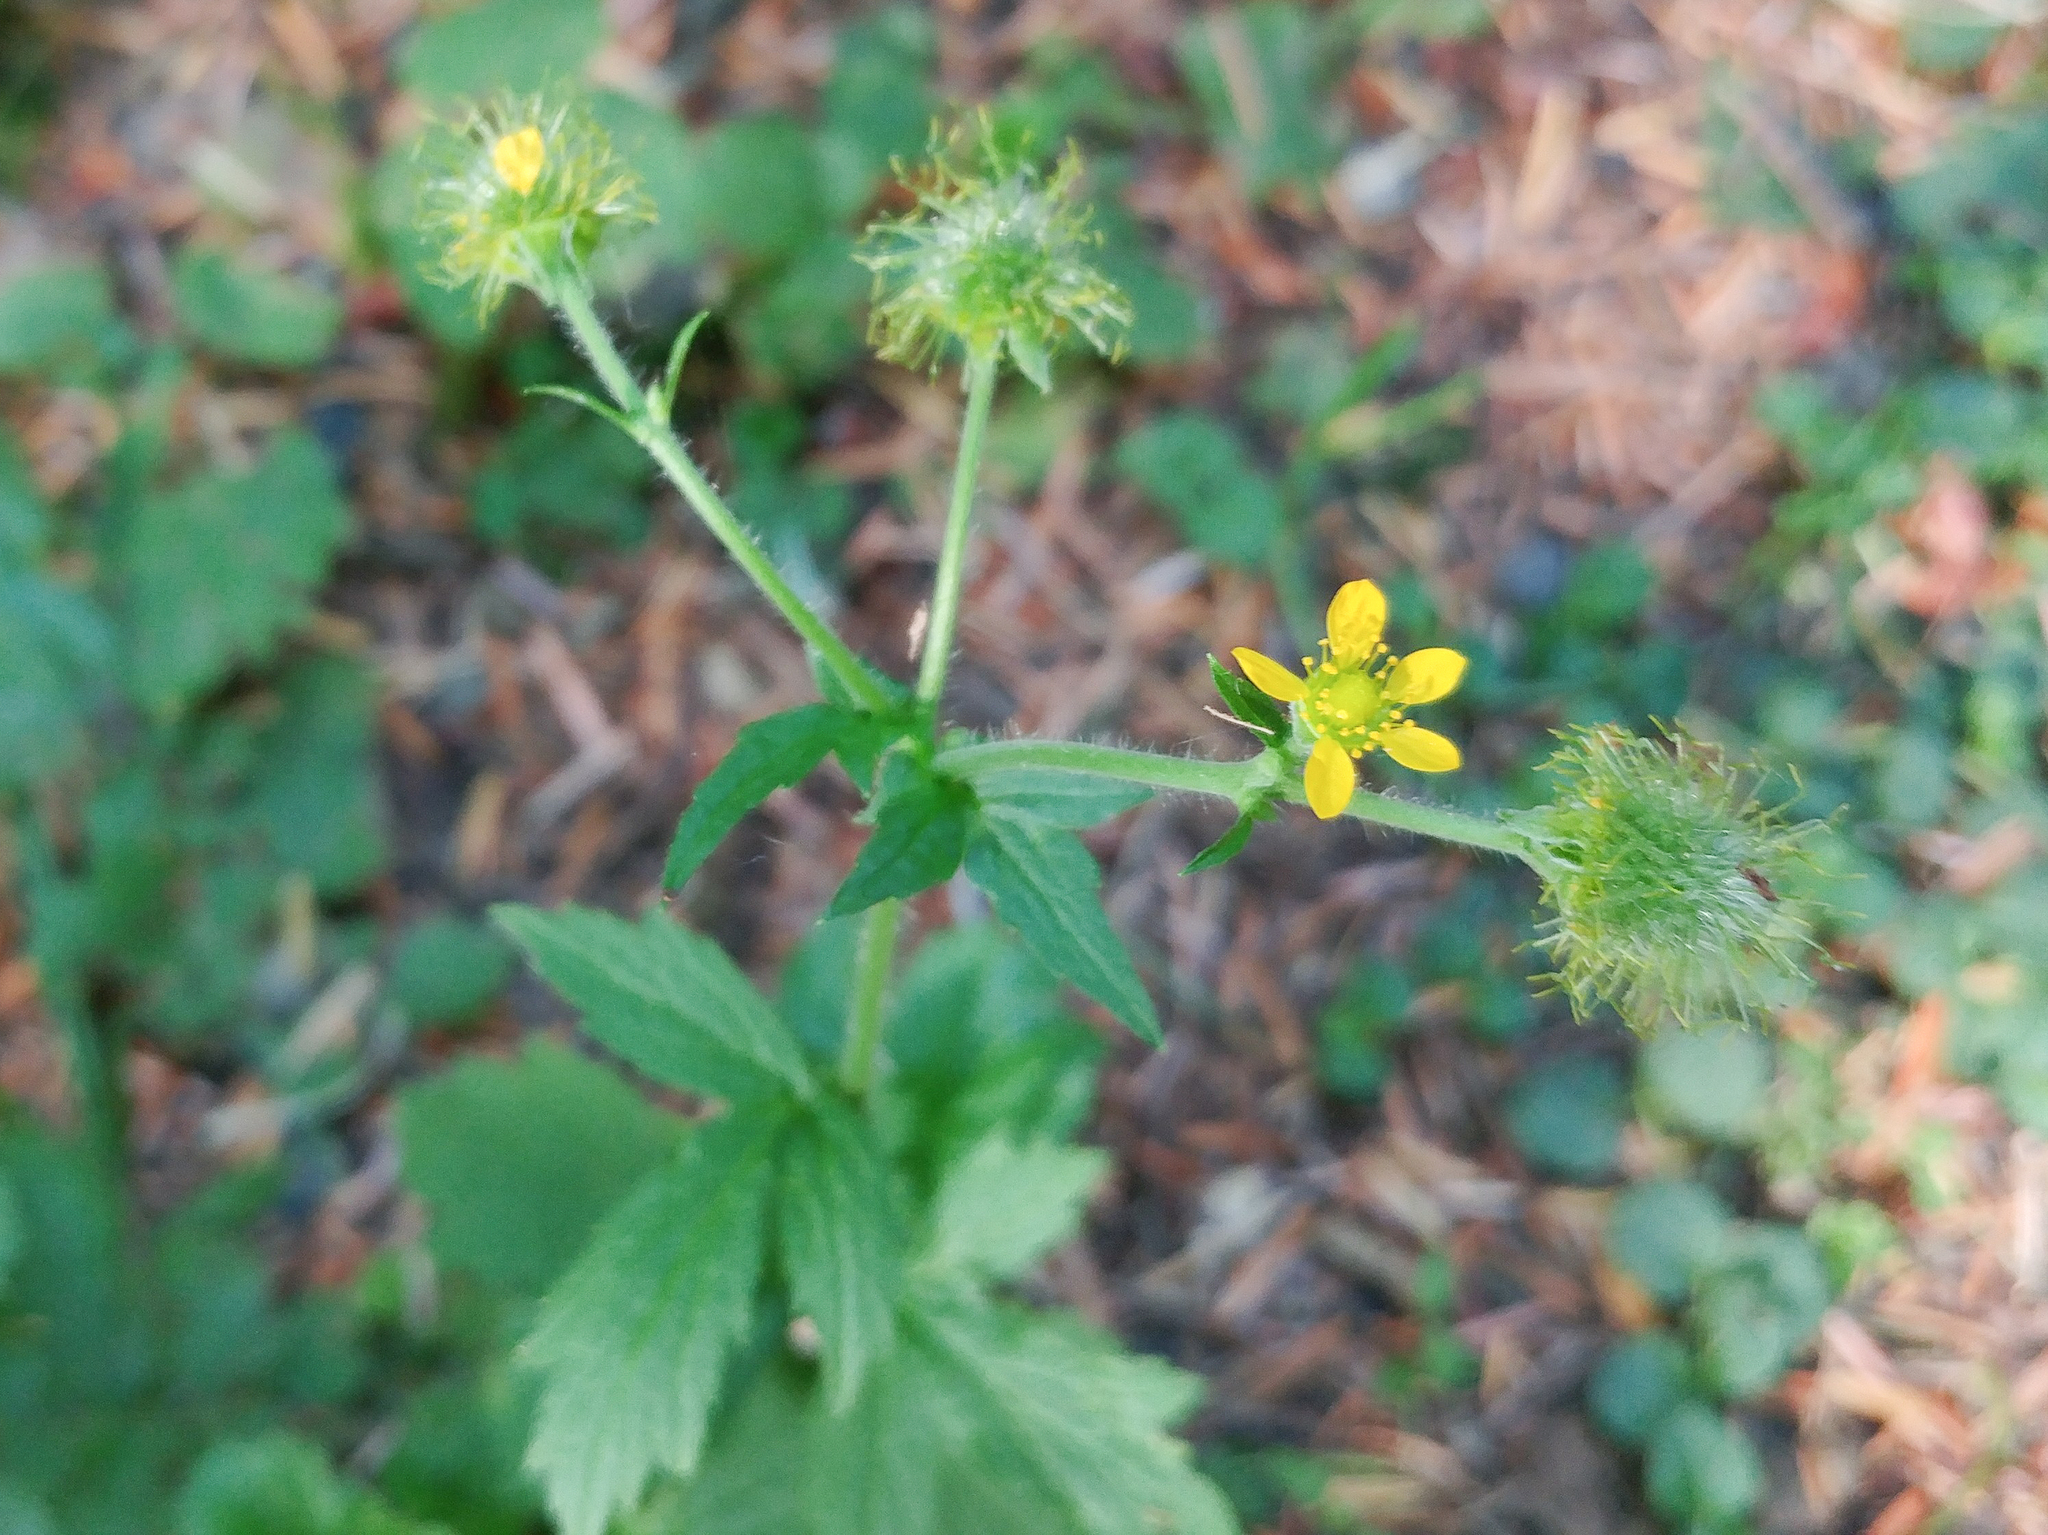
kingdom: Plantae
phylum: Tracheophyta
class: Magnoliopsida
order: Rosales
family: Rosaceae
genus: Geum
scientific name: Geum macrophyllum
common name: Large-leaved avens
